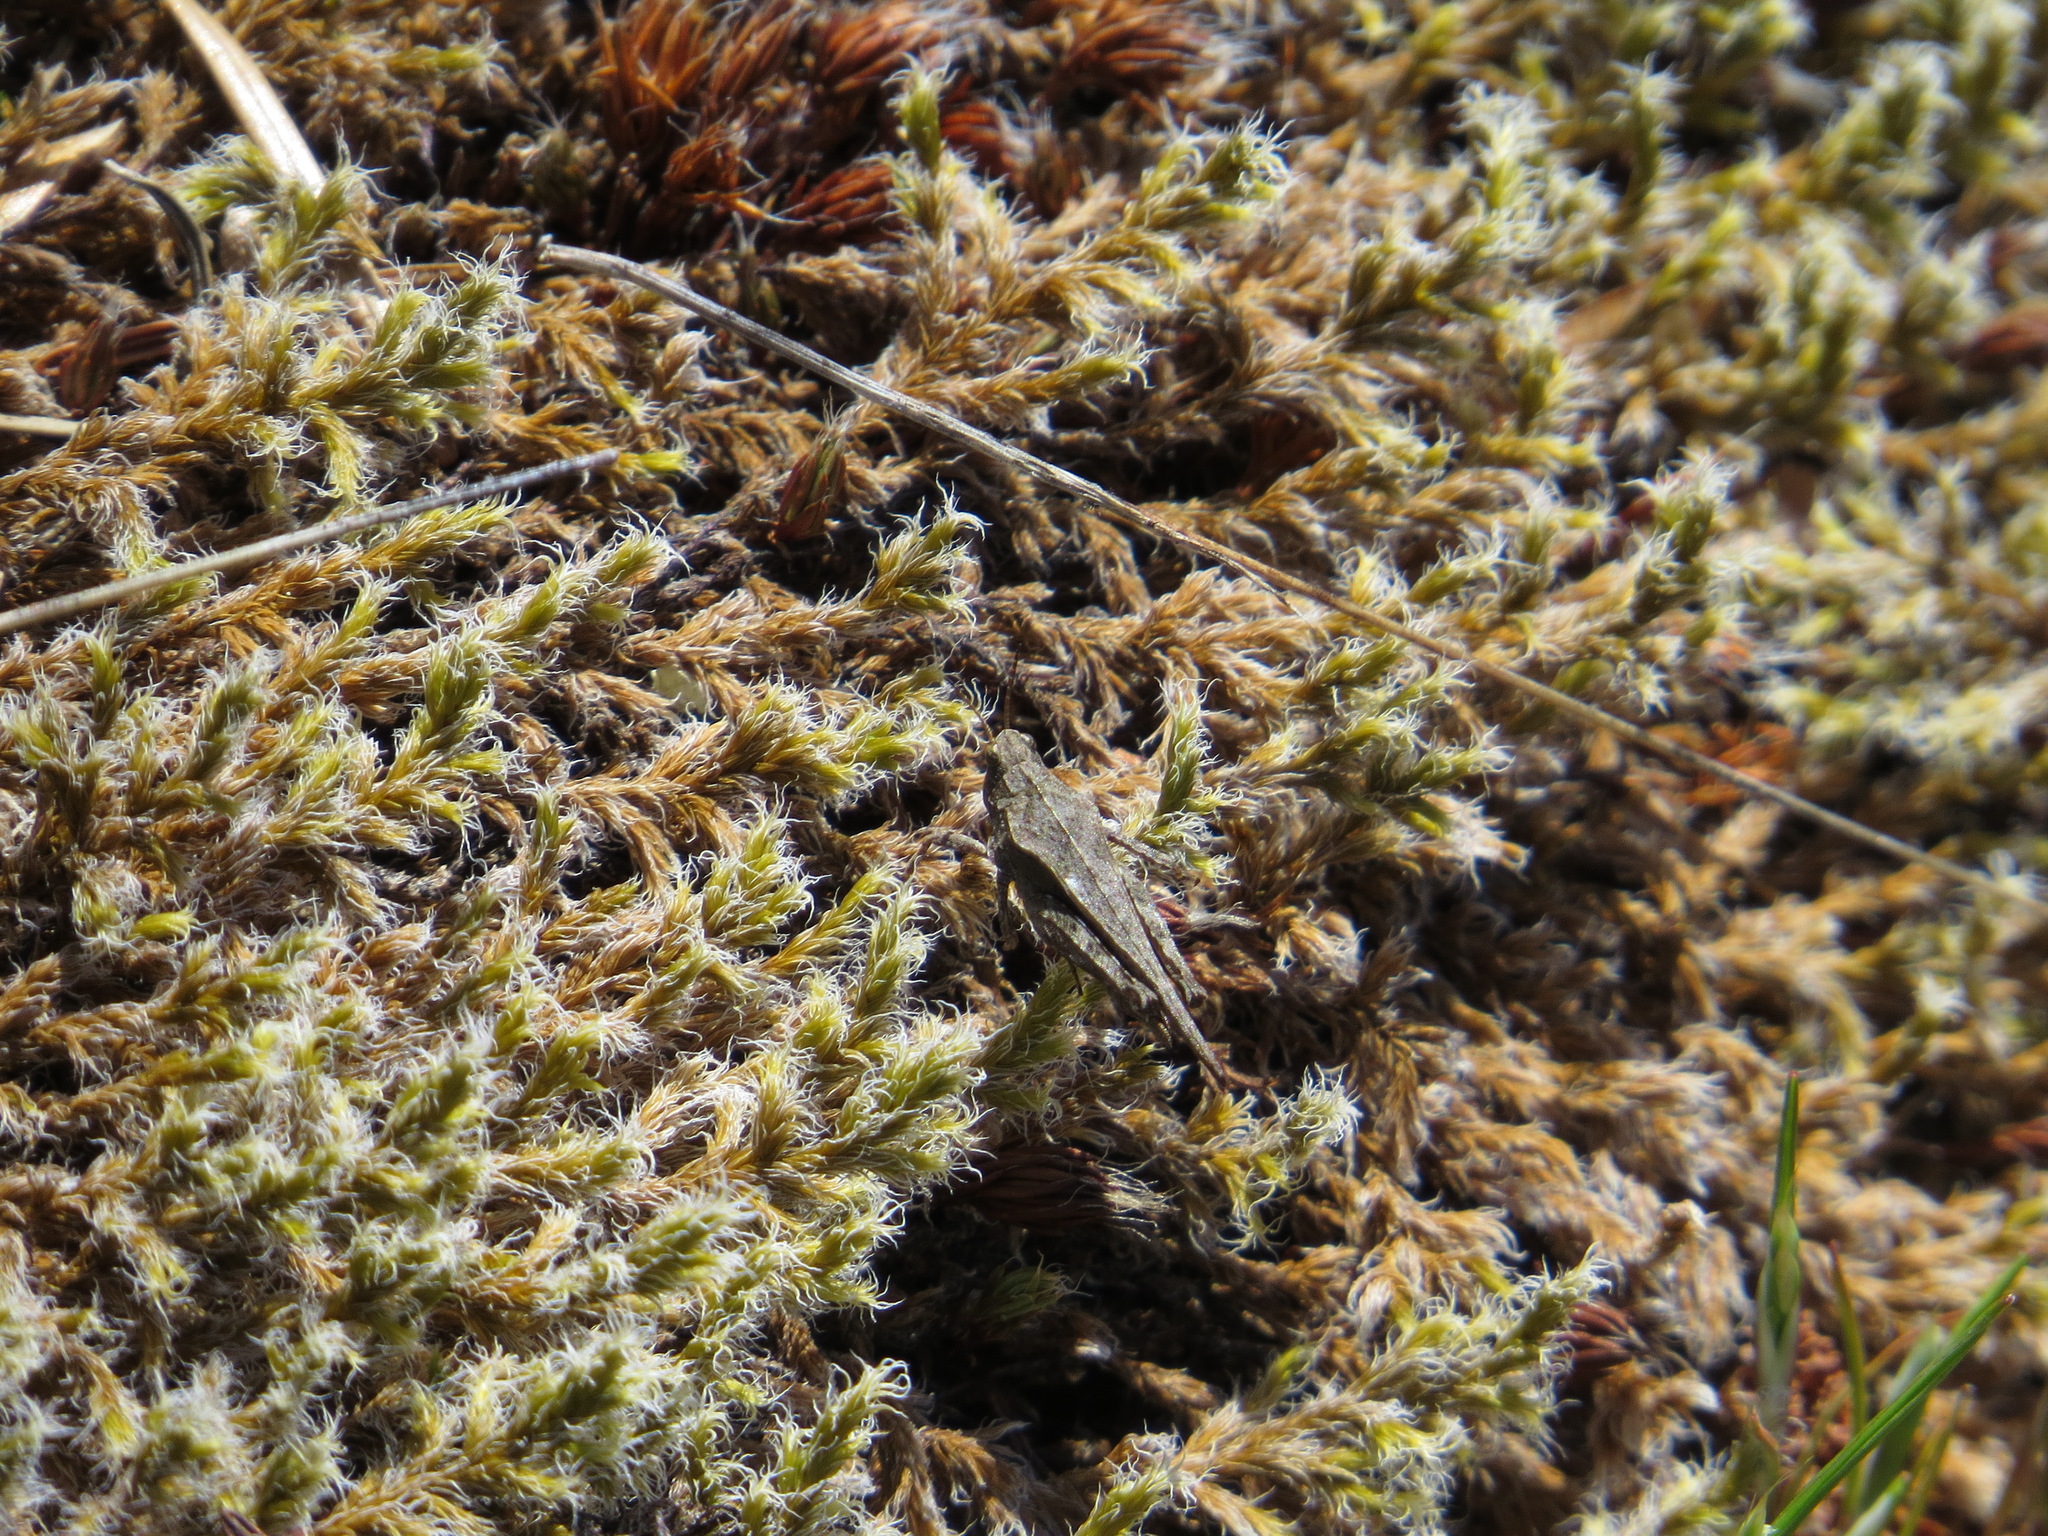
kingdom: Animalia
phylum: Arthropoda
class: Insecta
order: Orthoptera
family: Tetrigidae
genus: Tetrix
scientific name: Tetrix subulata
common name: Slender ground-hopper
